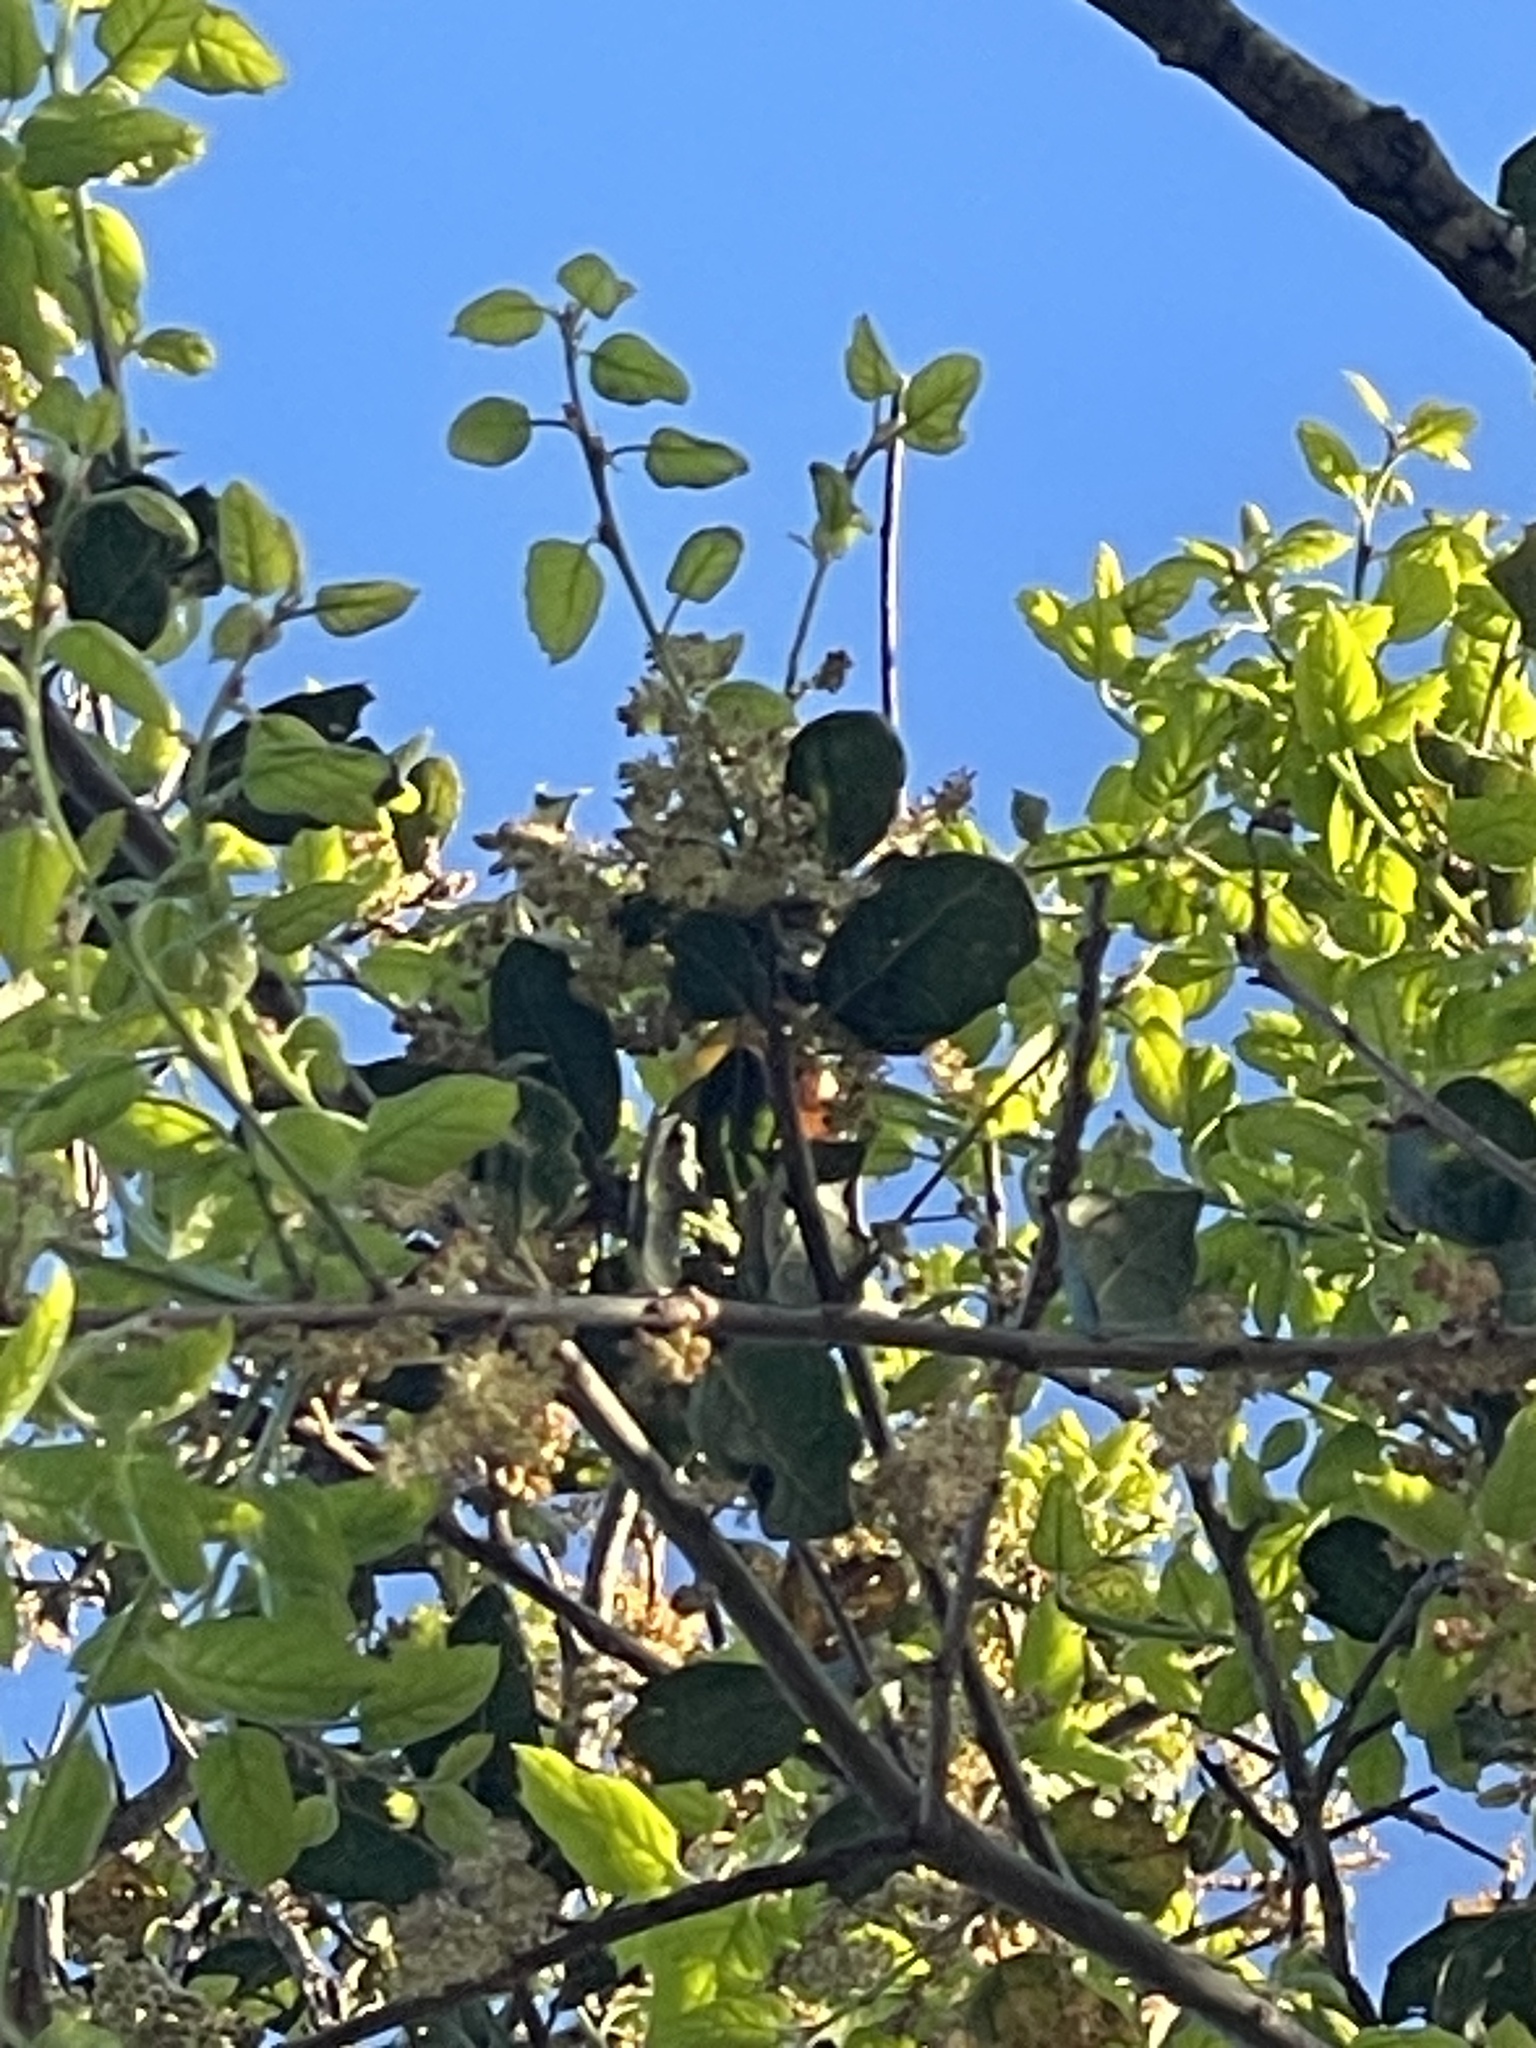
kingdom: Plantae
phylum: Tracheophyta
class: Magnoliopsida
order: Fagales
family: Fagaceae
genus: Quercus
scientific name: Quercus agrifolia
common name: California live oak
